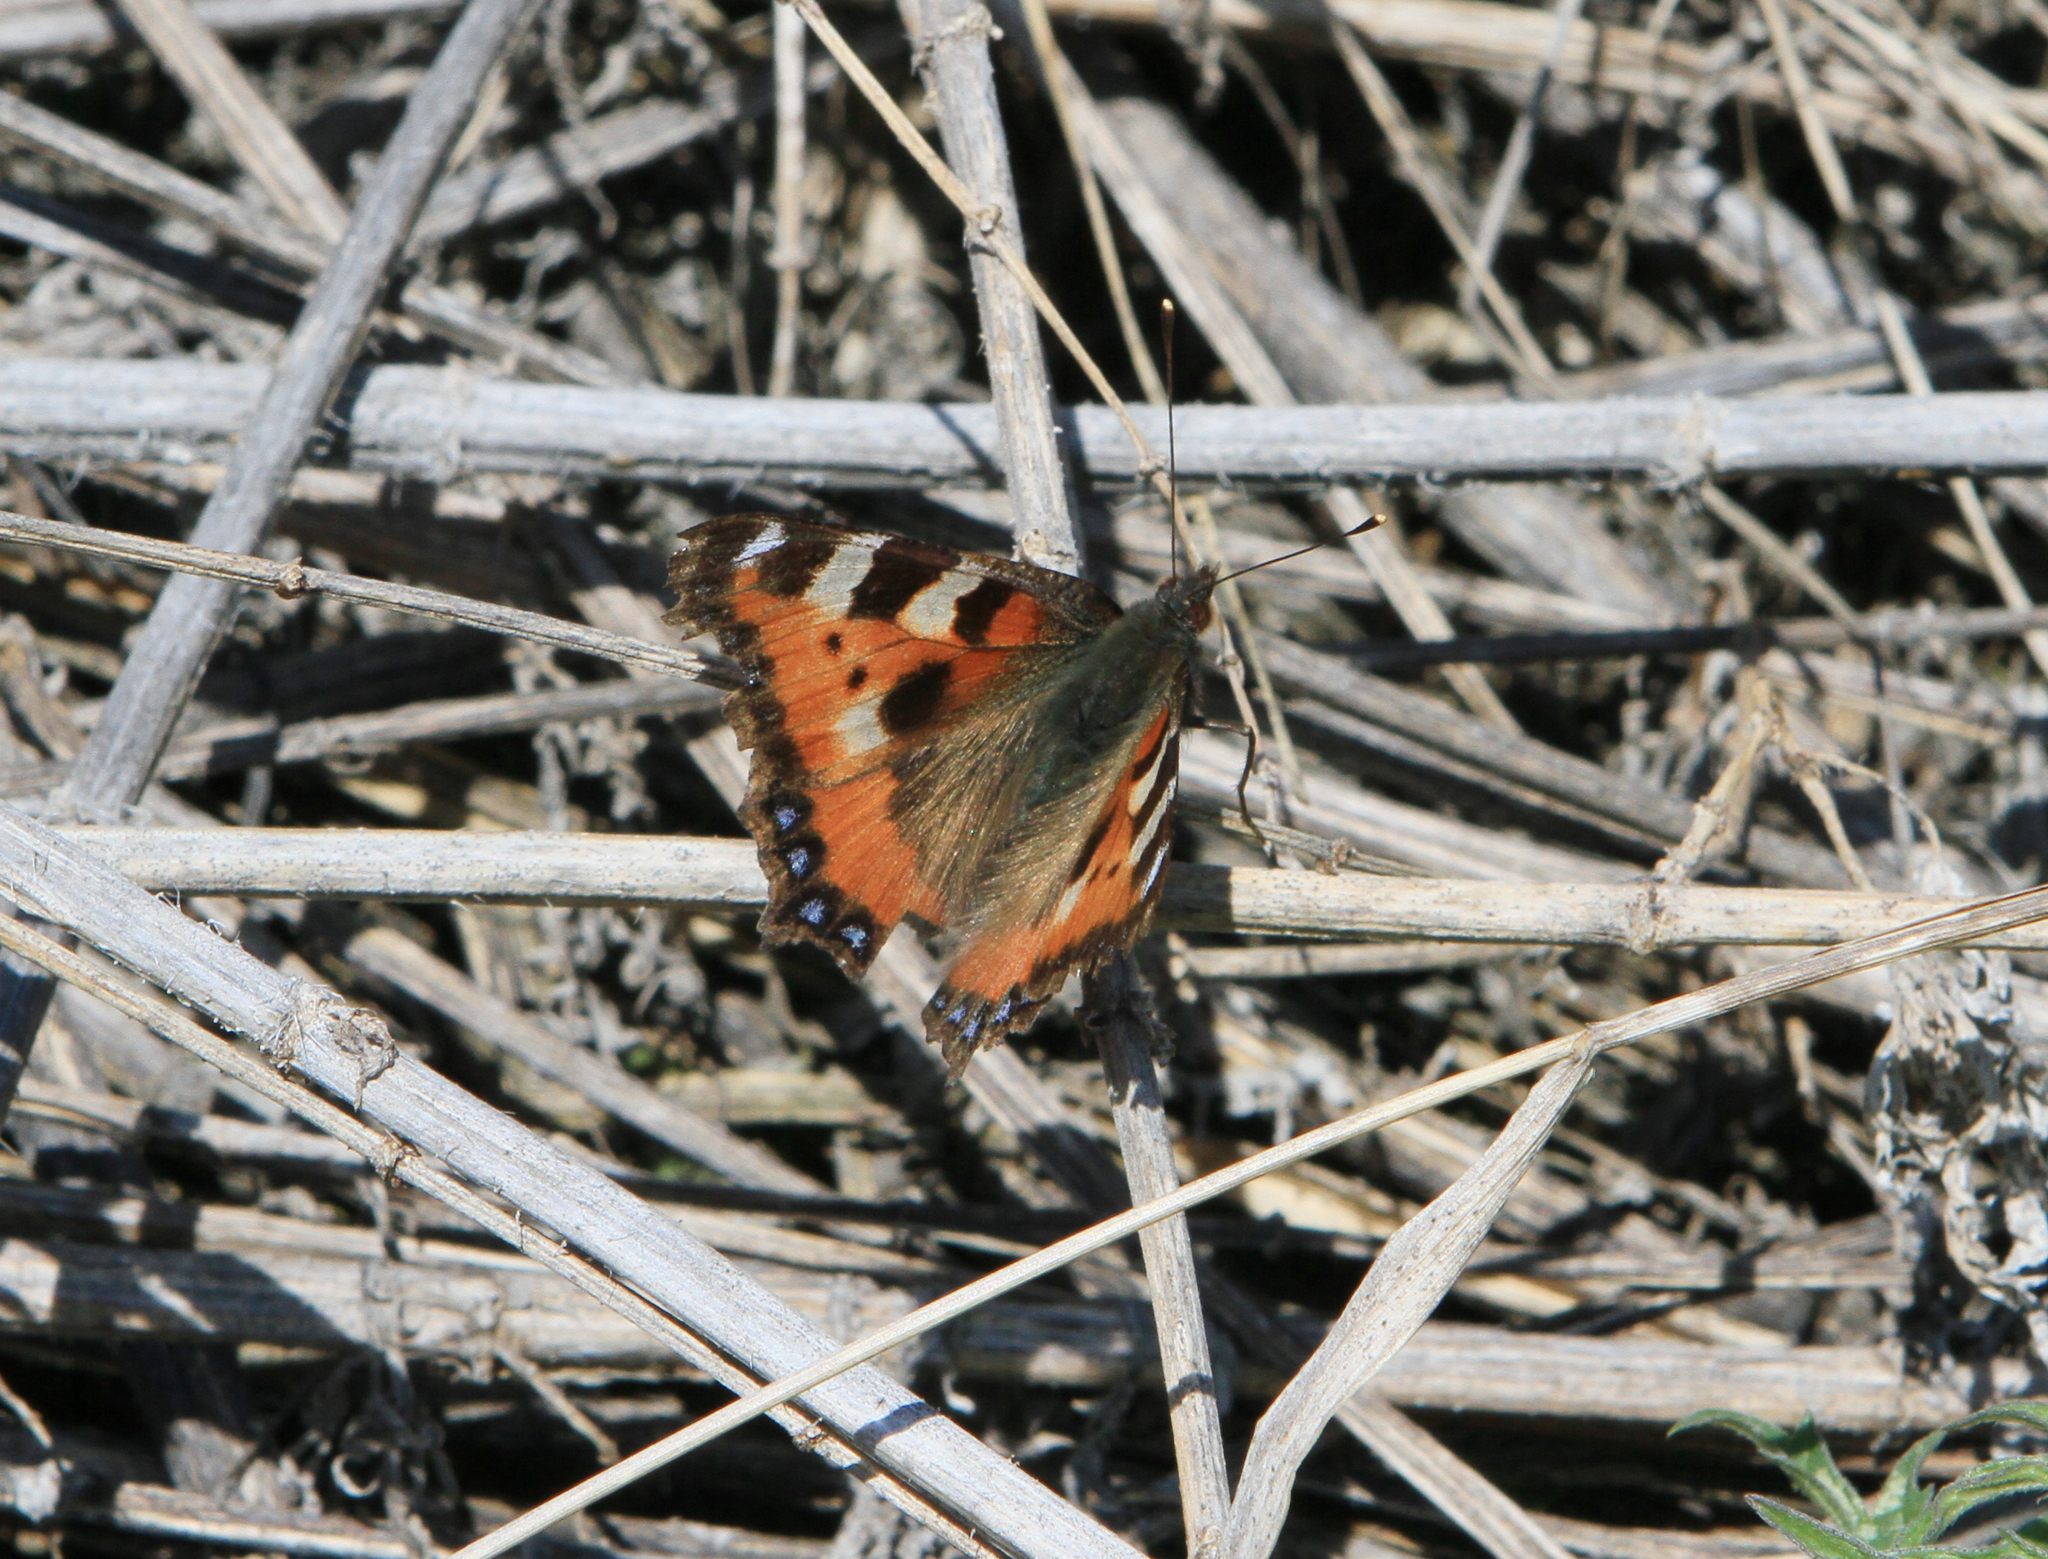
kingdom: Animalia
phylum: Arthropoda
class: Insecta
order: Lepidoptera
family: Nymphalidae
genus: Aglais
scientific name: Aglais urticae
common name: Small tortoiseshell
